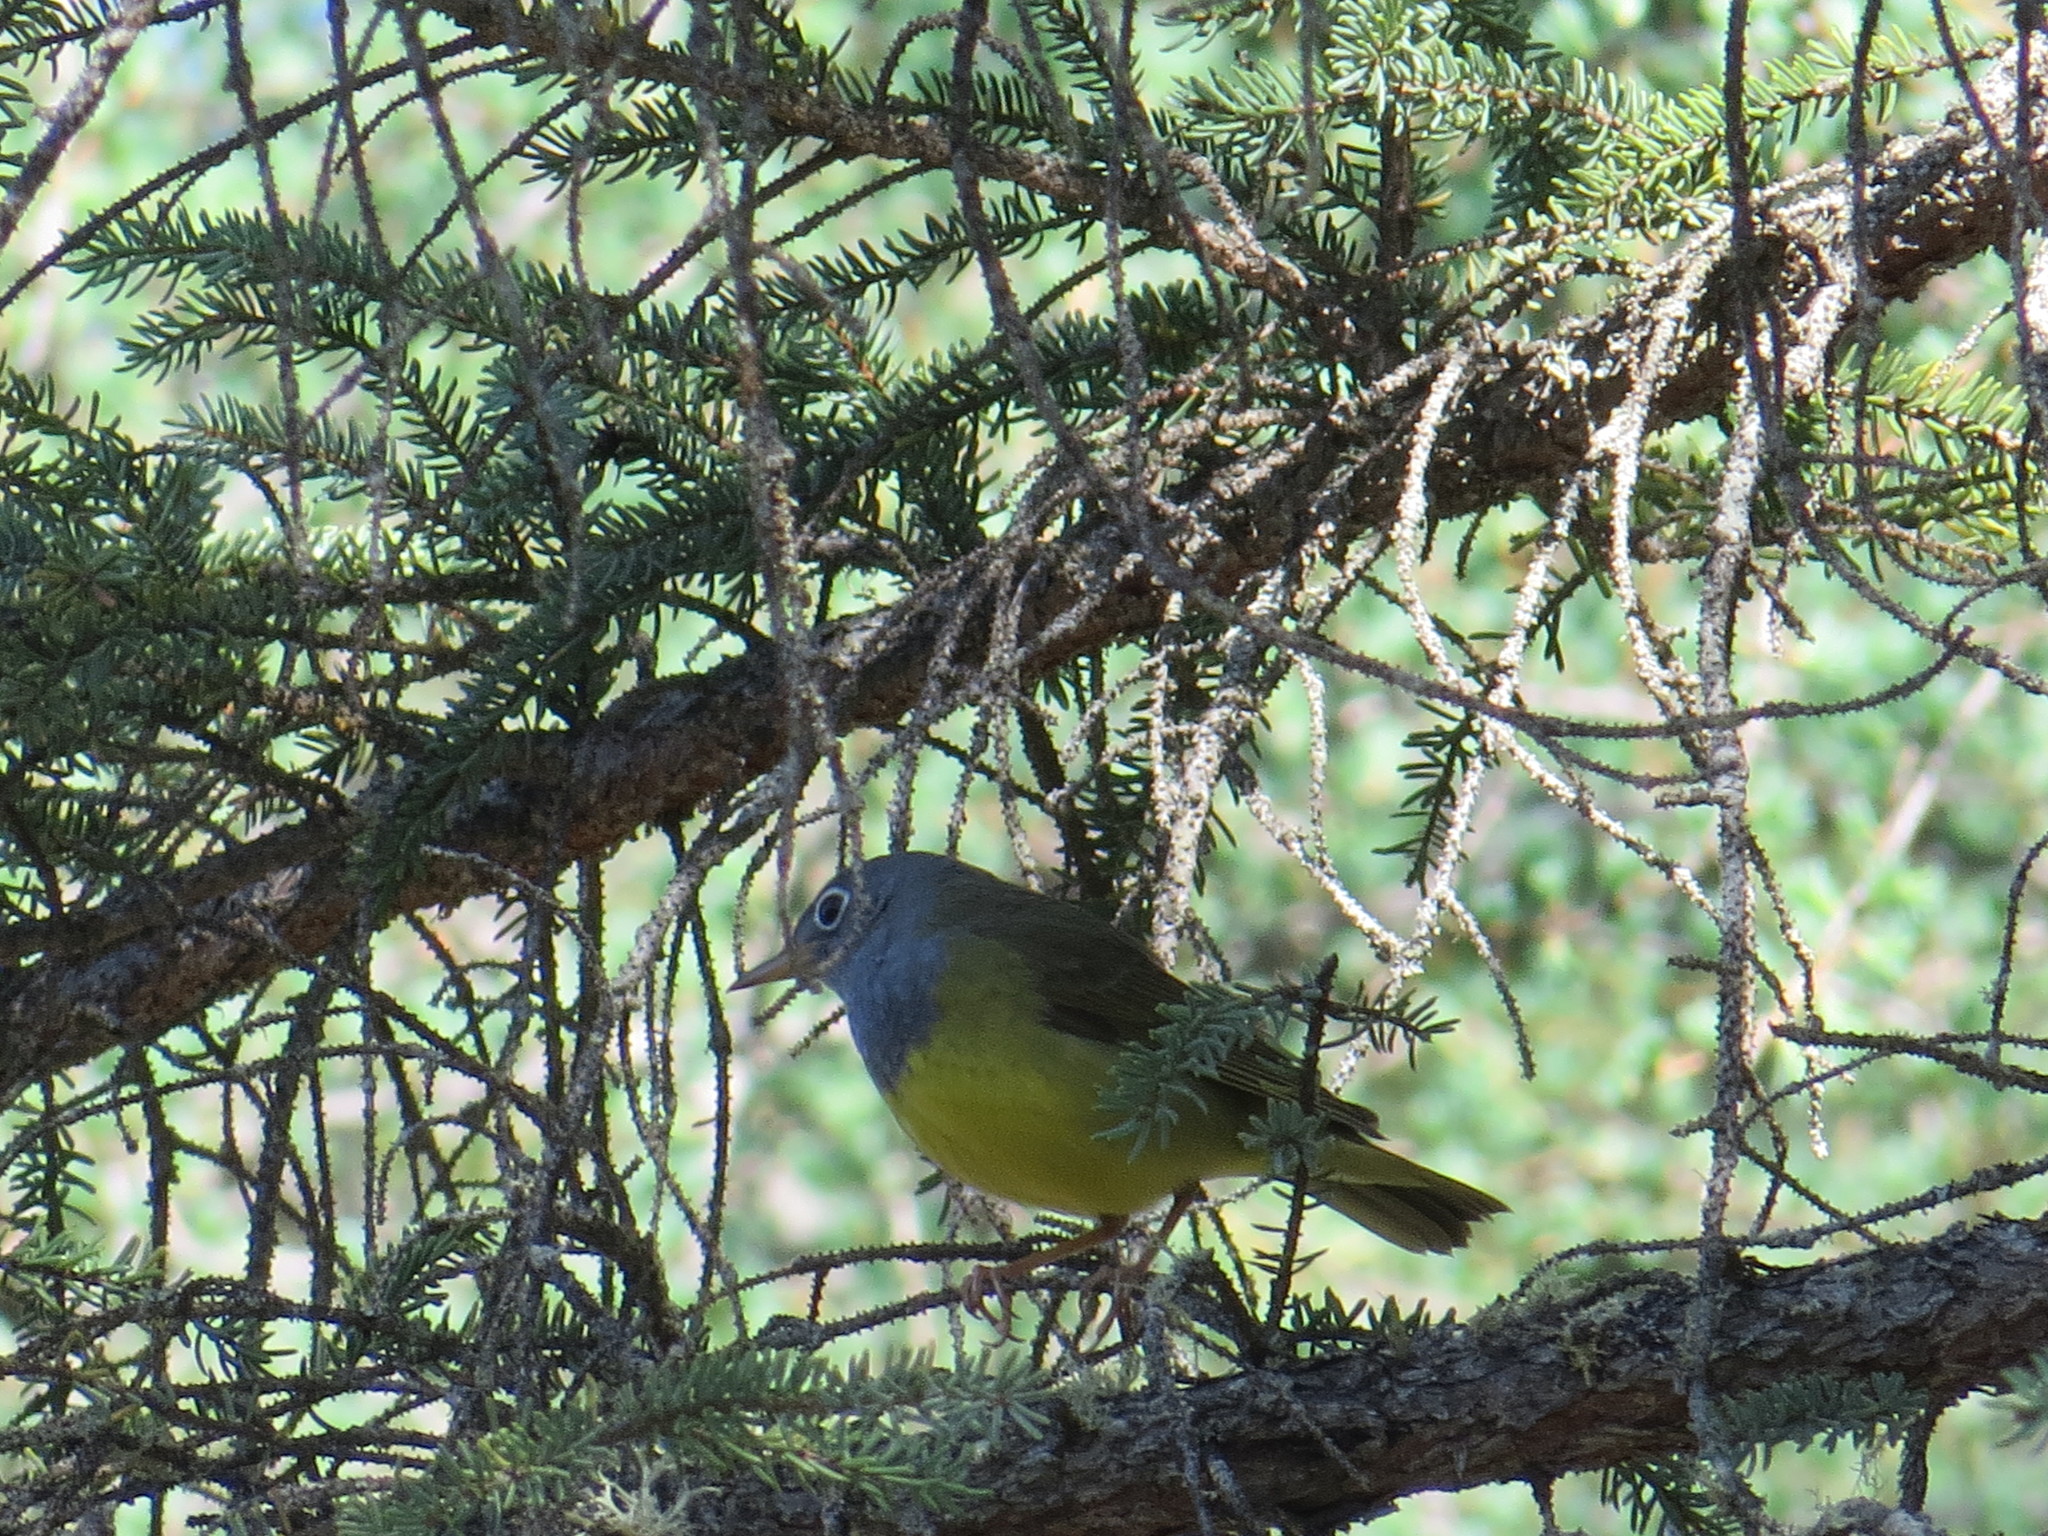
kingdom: Animalia
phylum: Chordata
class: Aves
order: Passeriformes
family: Parulidae
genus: Oporornis
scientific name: Oporornis agilis
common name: Connecticut warbler
